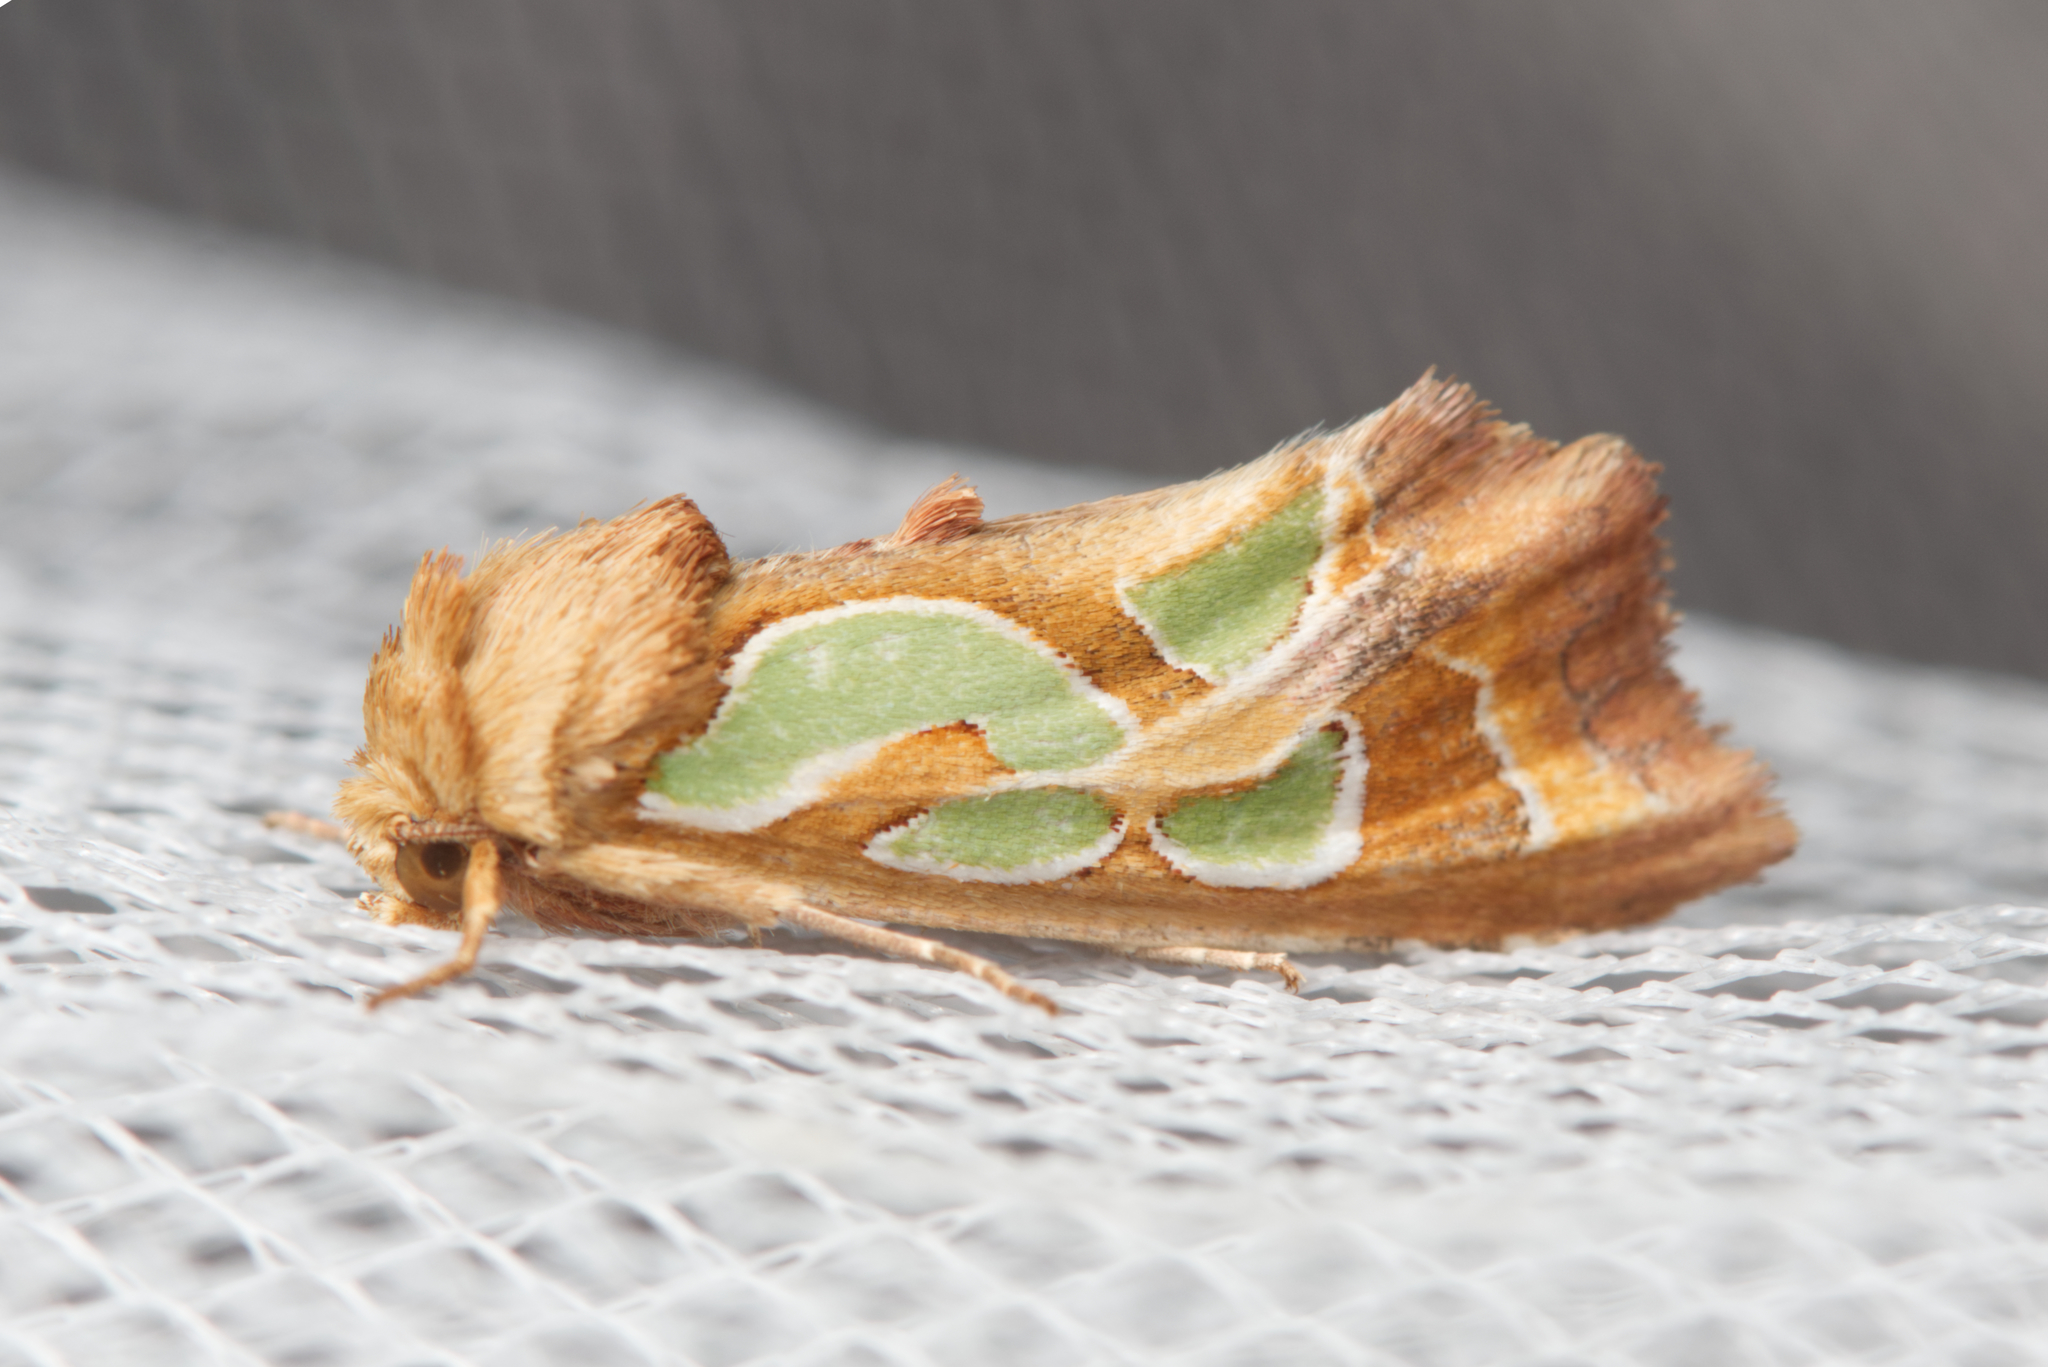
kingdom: Animalia
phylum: Arthropoda
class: Insecta
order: Lepidoptera
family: Noctuidae
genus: Cosmodes
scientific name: Cosmodes elegans
